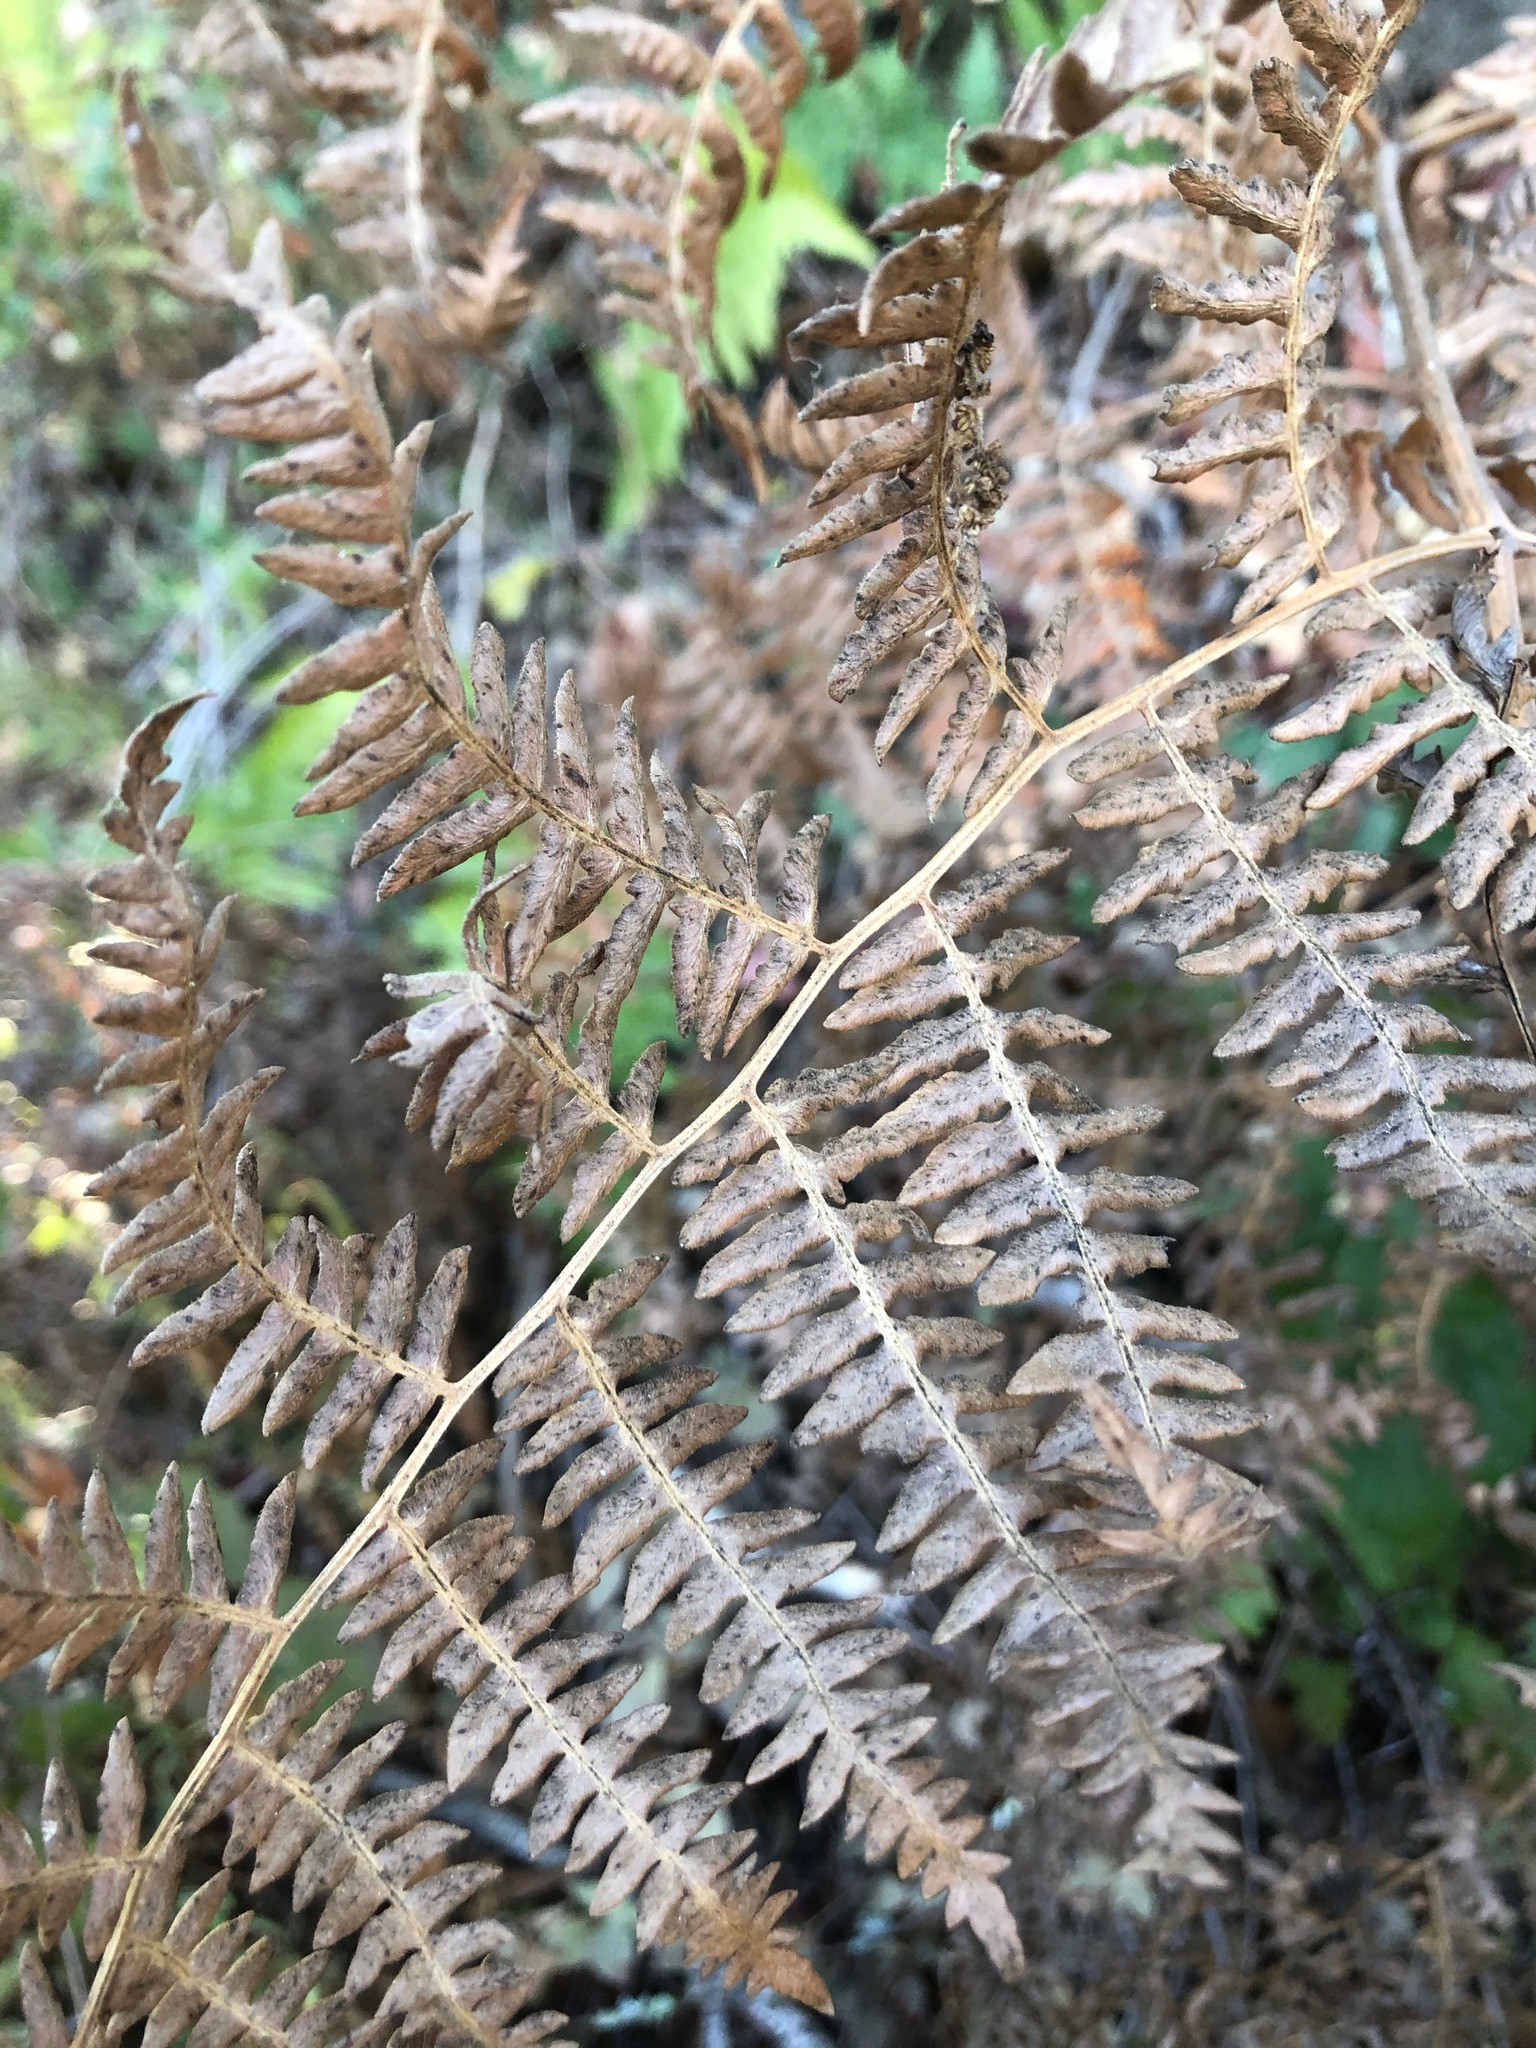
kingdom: Plantae
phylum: Tracheophyta
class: Polypodiopsida
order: Polypodiales
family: Dennstaedtiaceae
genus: Pteridium
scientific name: Pteridium aquilinum
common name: Bracken
